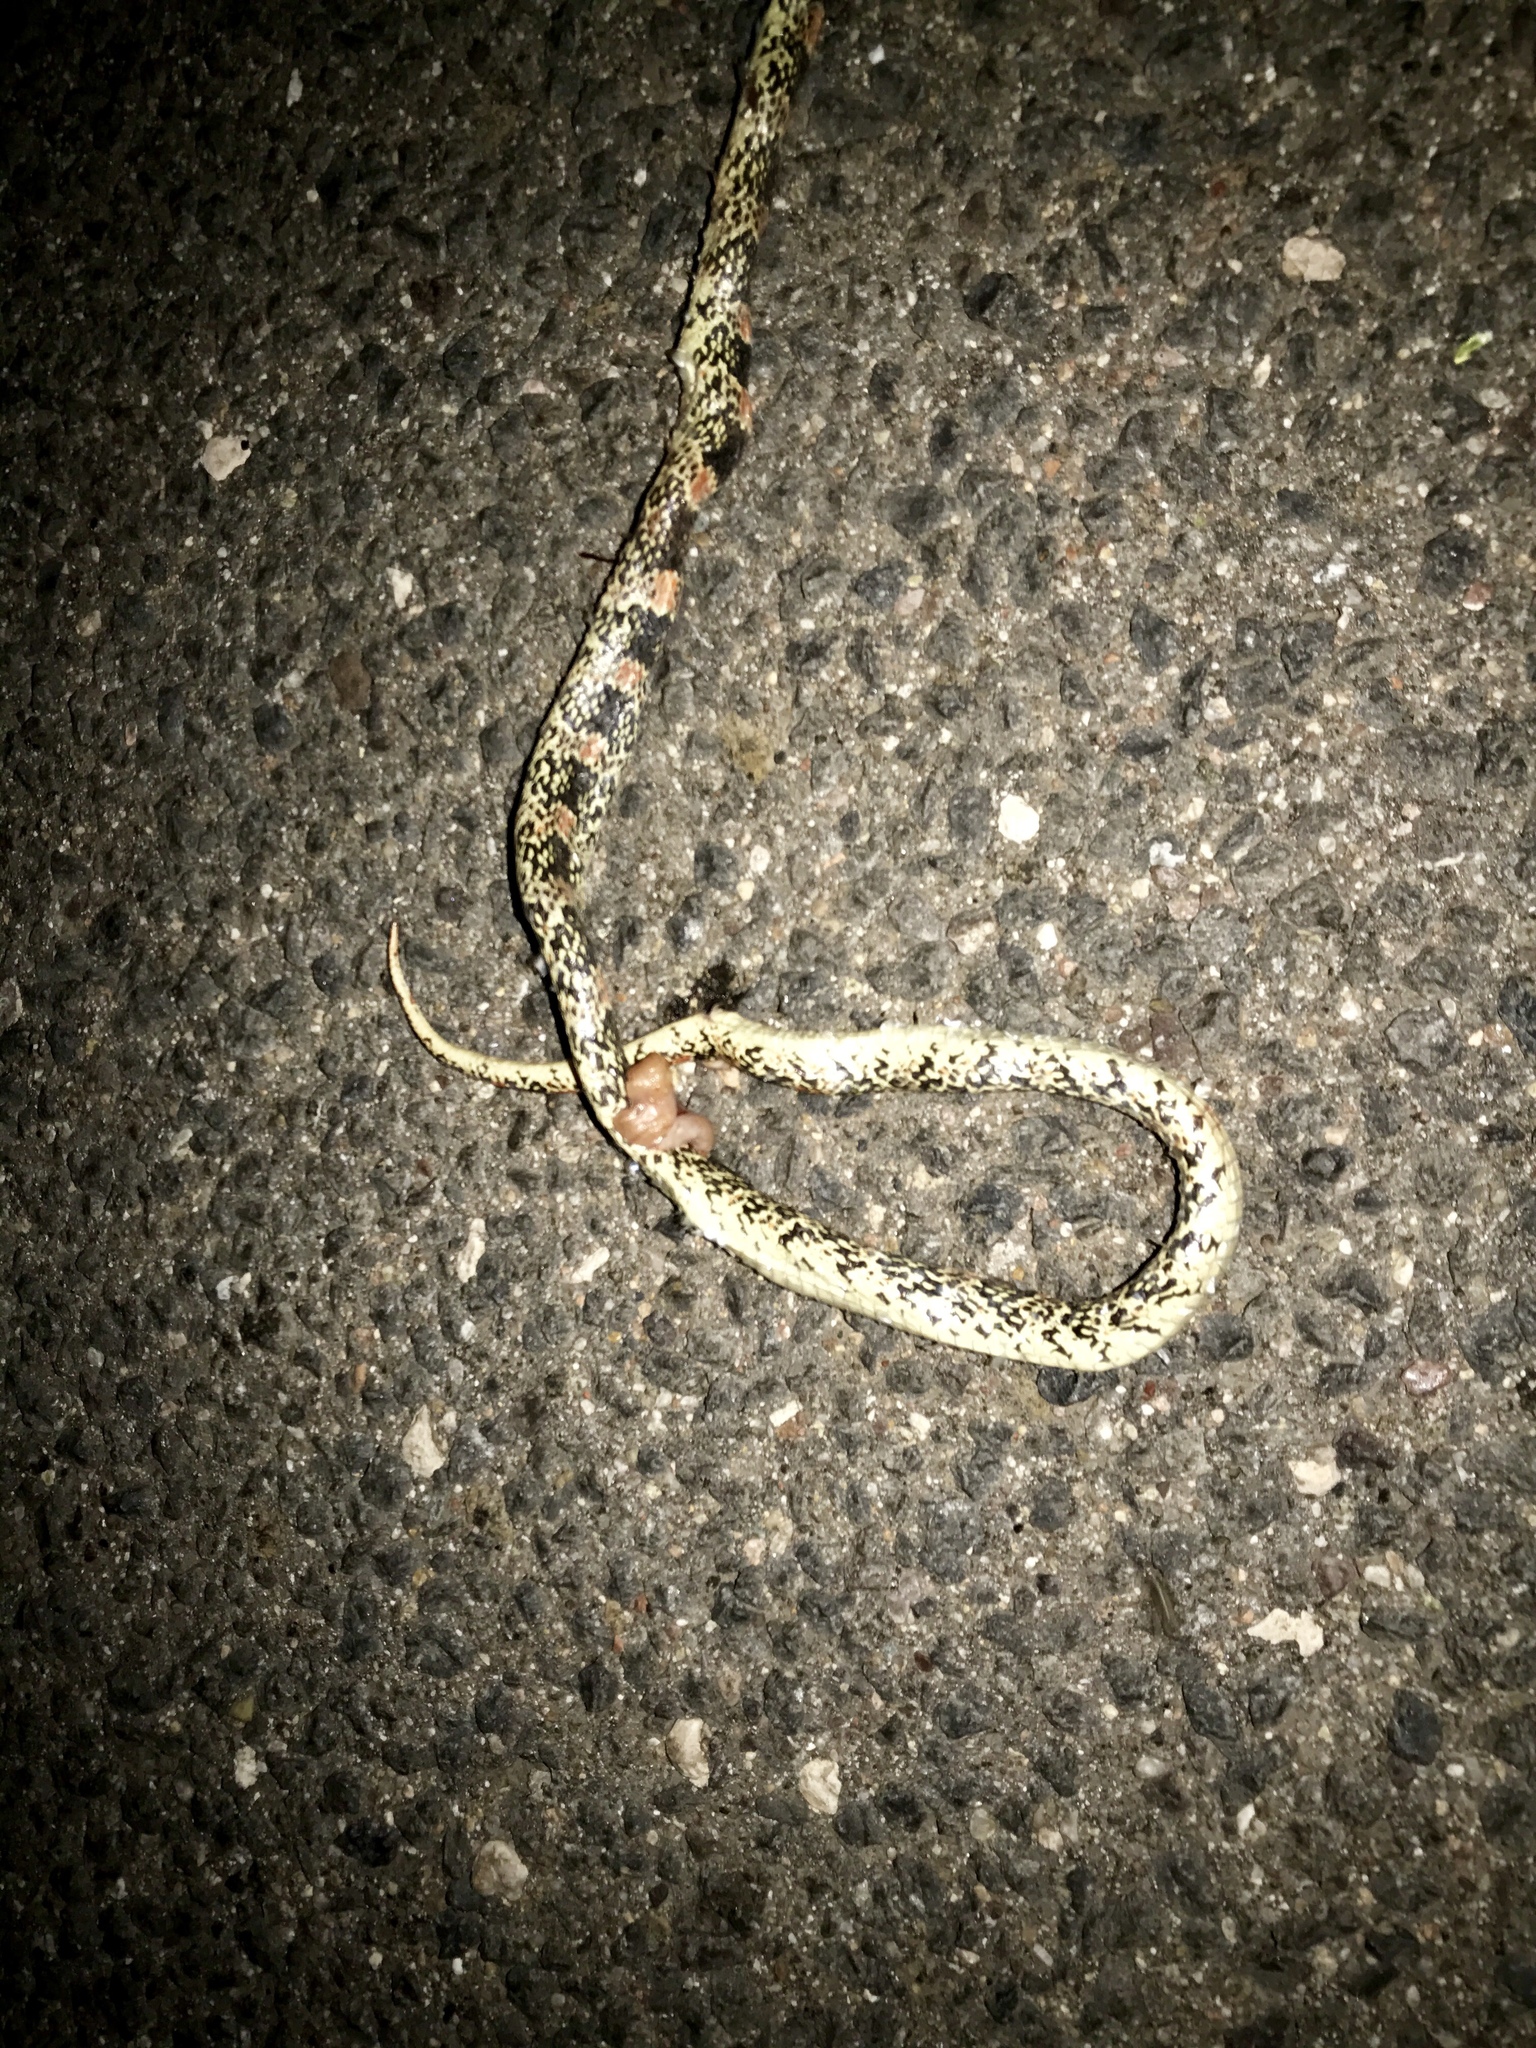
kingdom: Animalia
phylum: Chordata
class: Squamata
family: Colubridae
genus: Rhinocheilus
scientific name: Rhinocheilus lecontei
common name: Longnose snake
